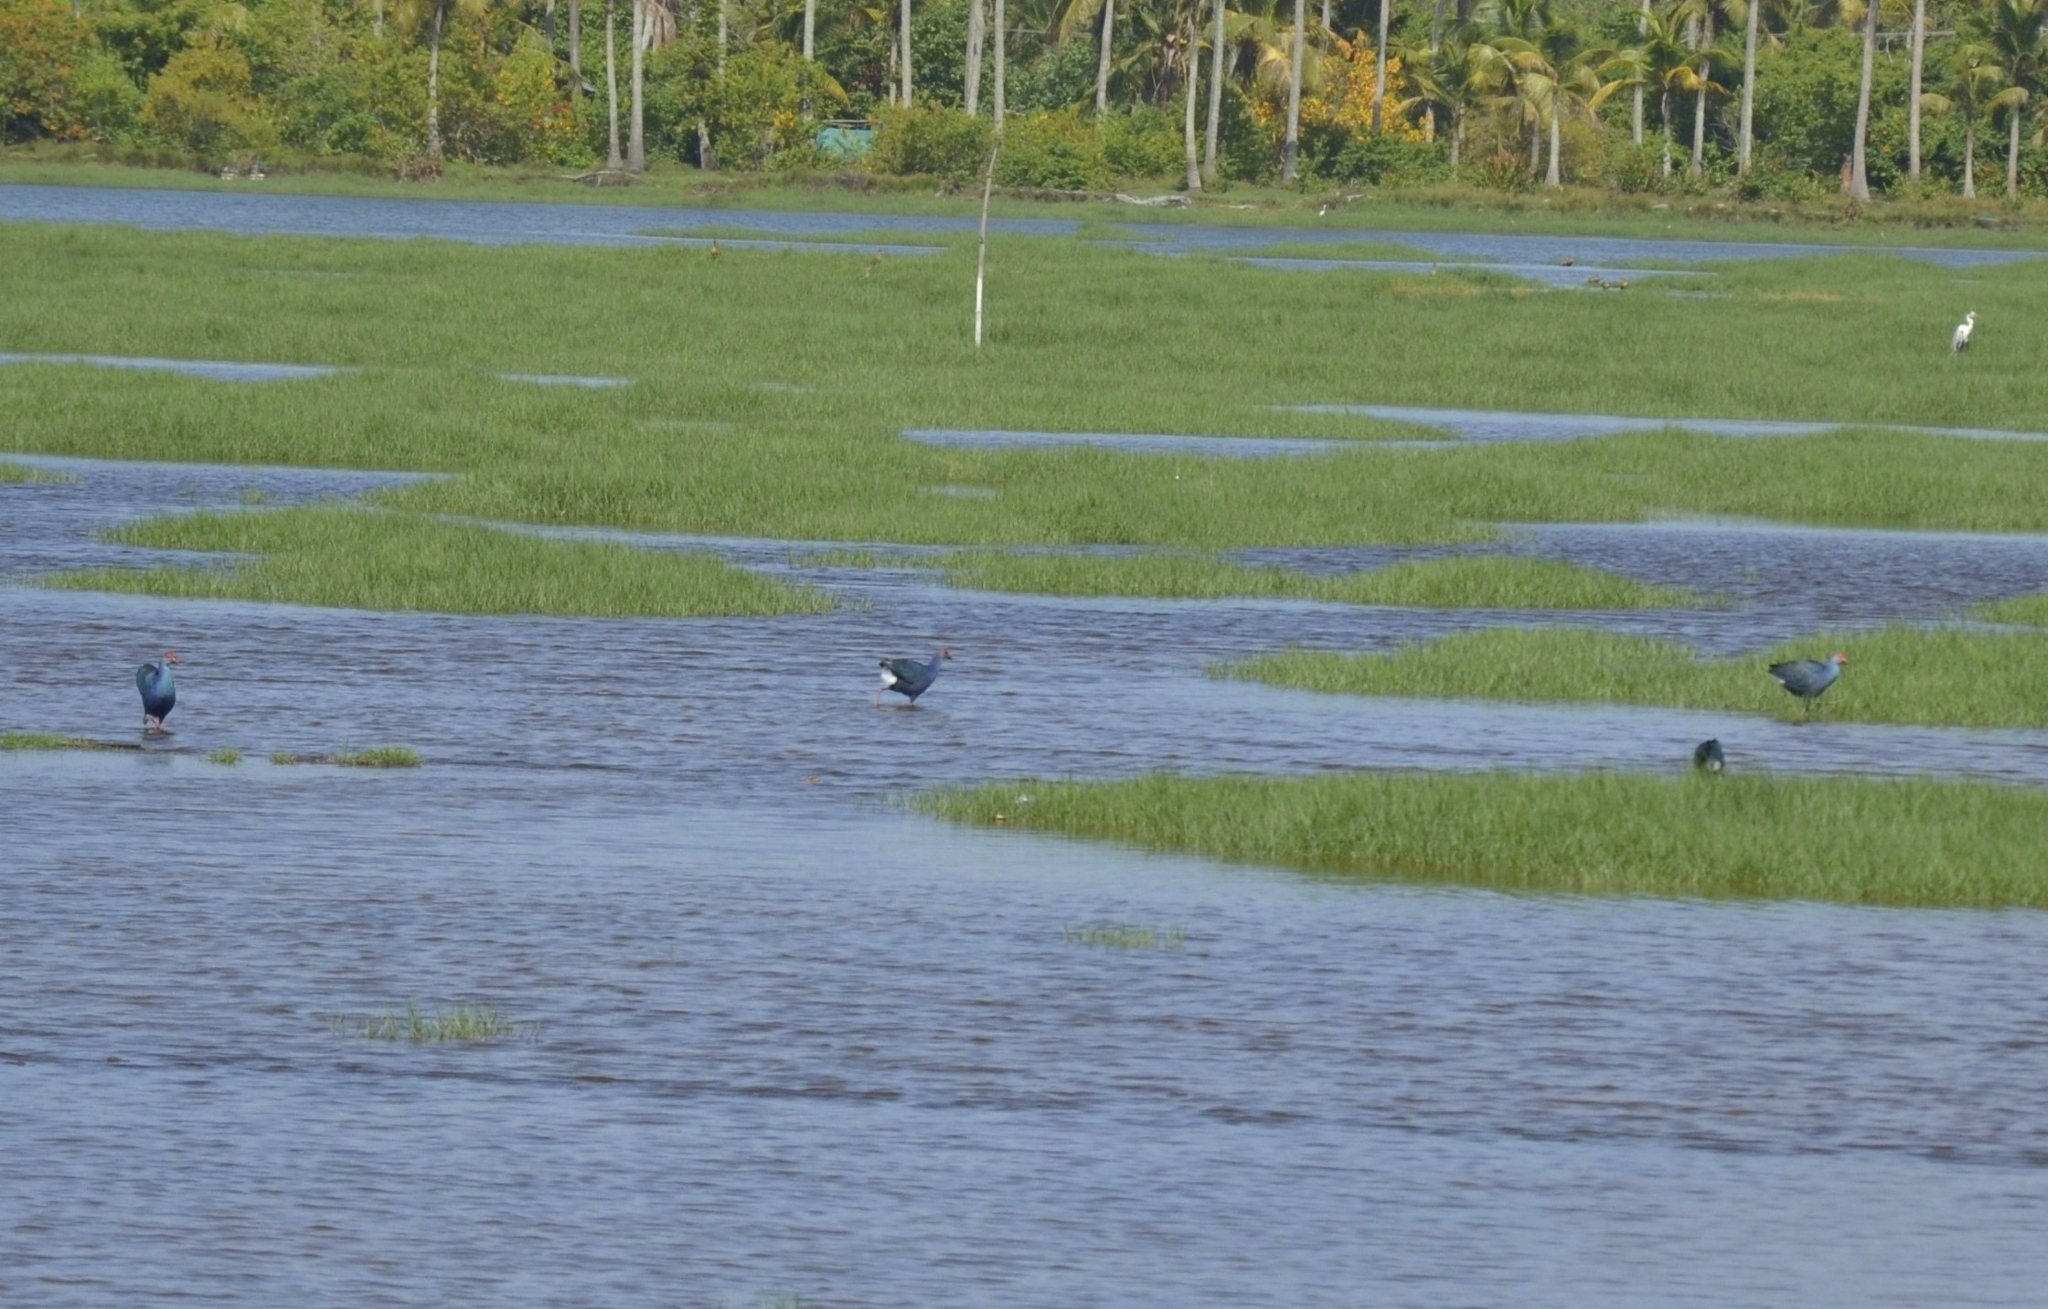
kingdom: Animalia
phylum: Chordata
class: Aves
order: Gruiformes
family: Rallidae
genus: Porphyrio
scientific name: Porphyrio porphyrio
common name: Purple swamphen
